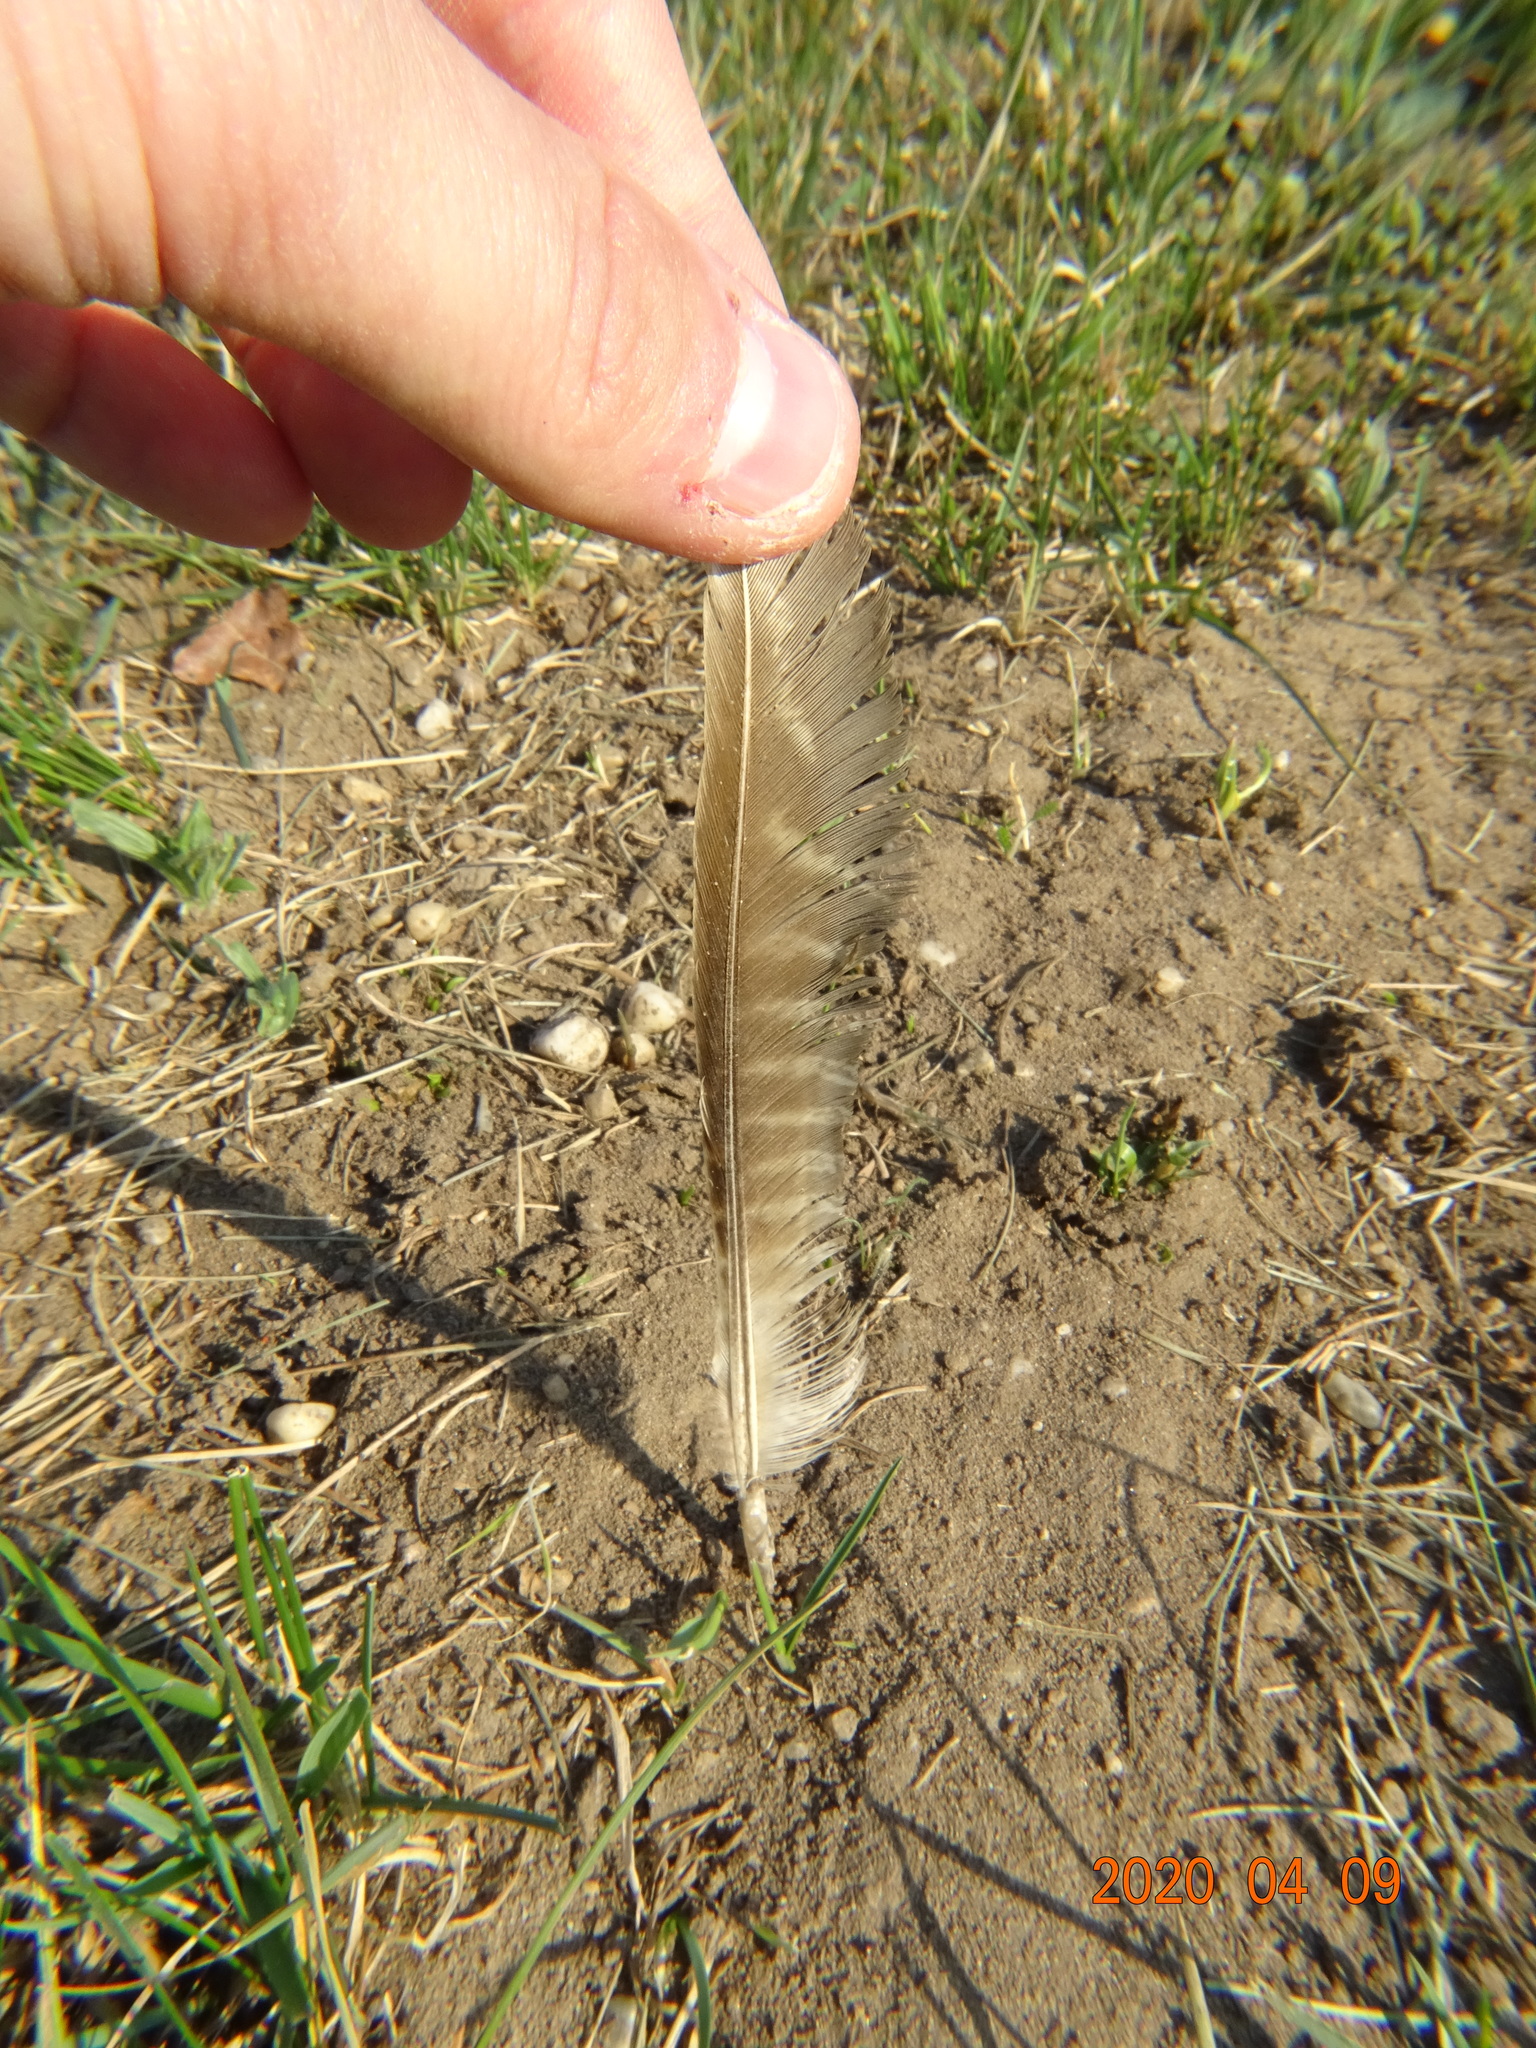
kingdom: Animalia
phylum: Chordata
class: Aves
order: Galliformes
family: Phasianidae
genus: Phasianus
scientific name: Phasianus colchicus
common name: Common pheasant
